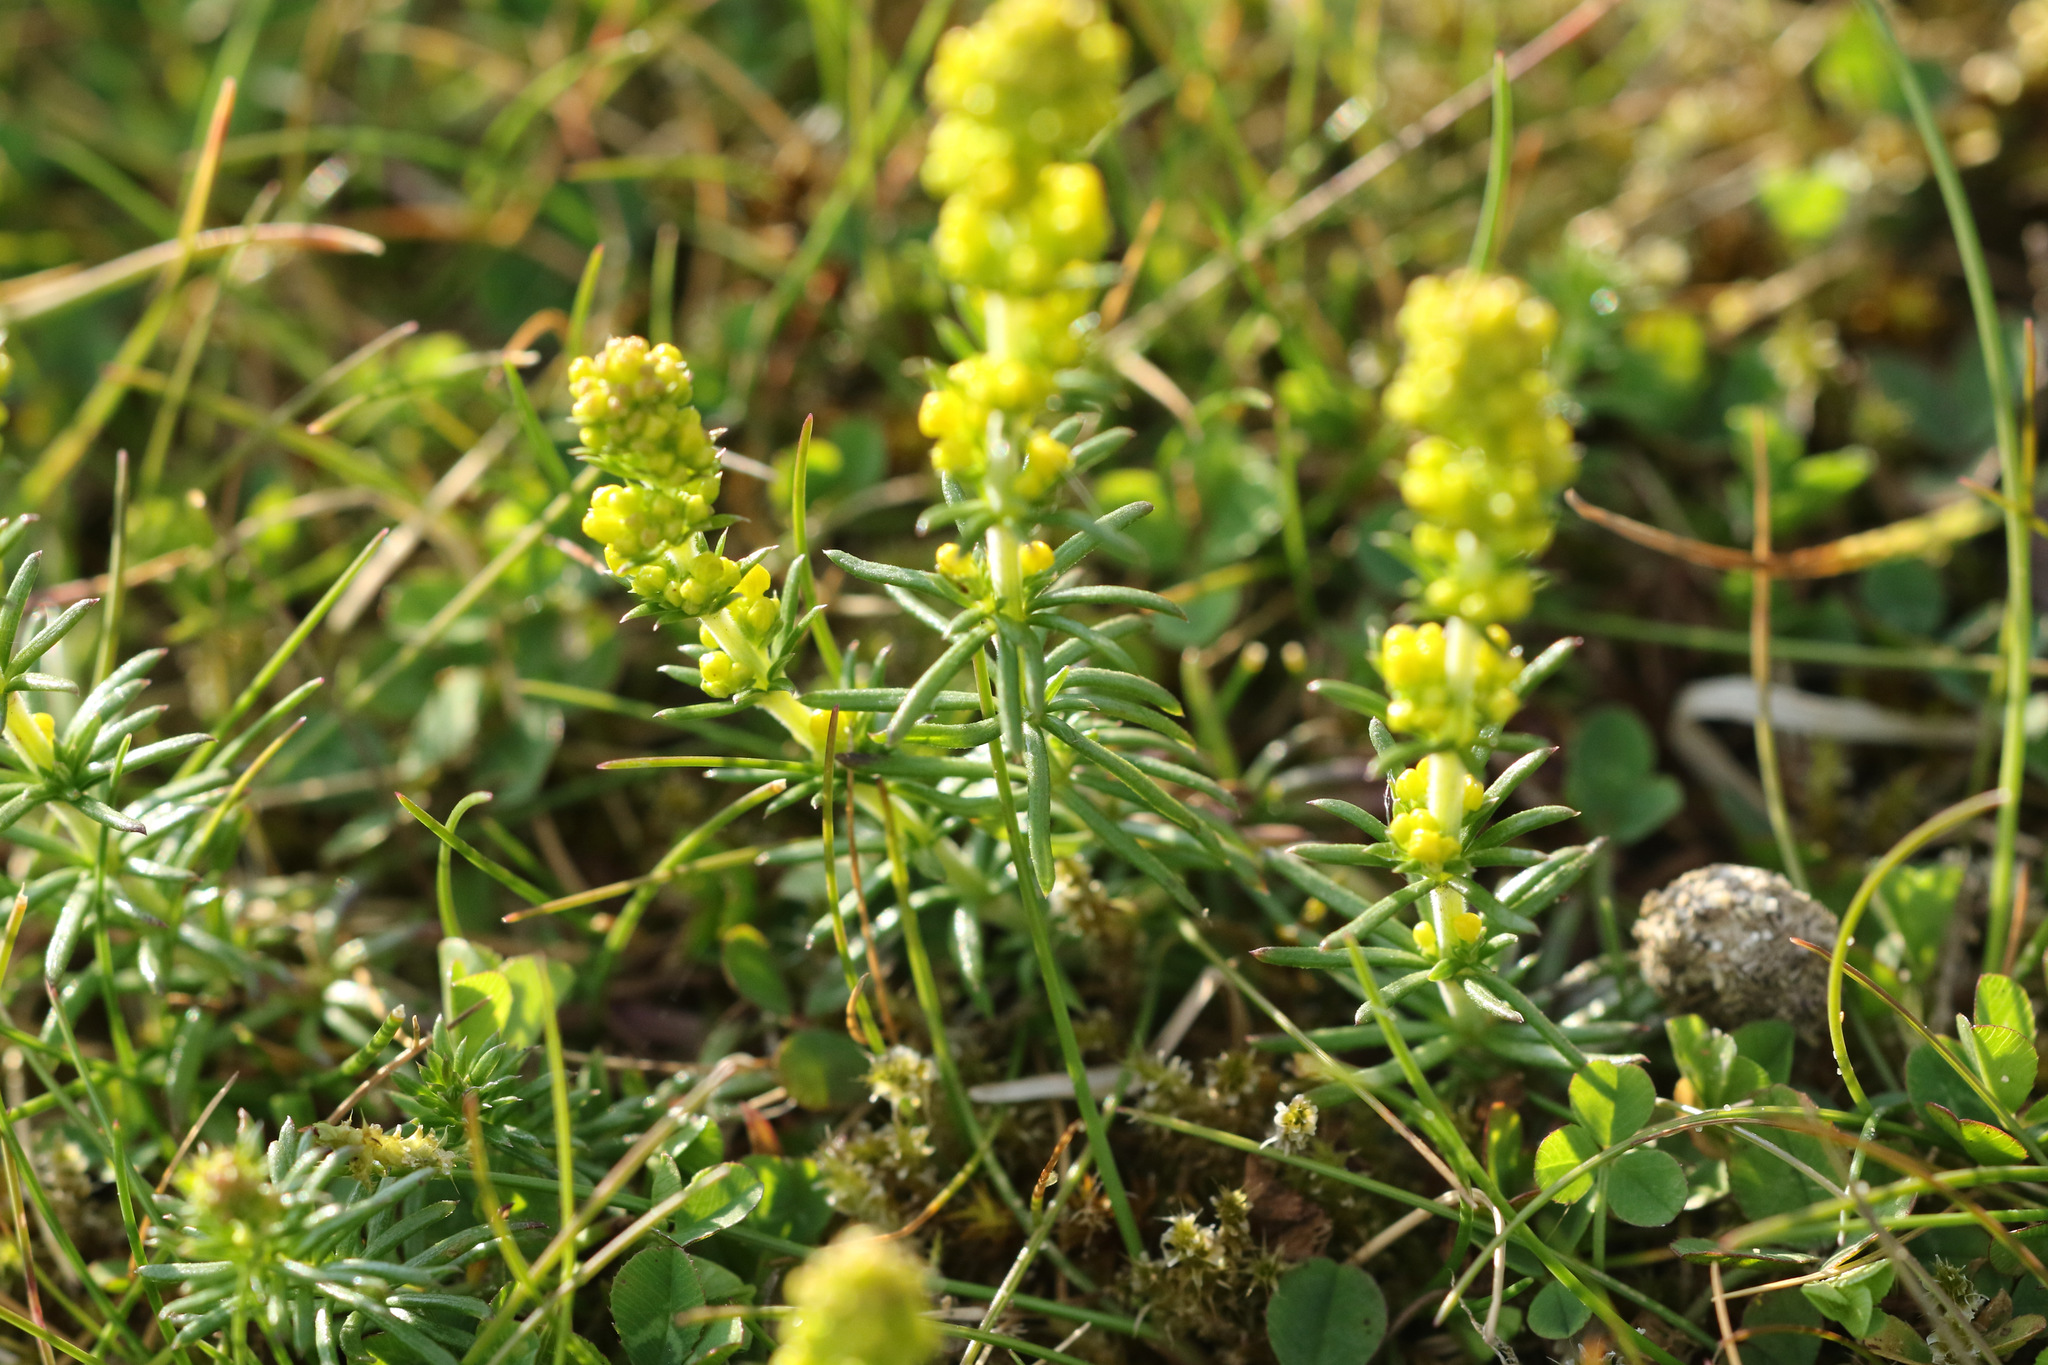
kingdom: Plantae
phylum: Tracheophyta
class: Magnoliopsida
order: Gentianales
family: Rubiaceae
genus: Galium
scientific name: Galium verum
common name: Lady's bedstraw
